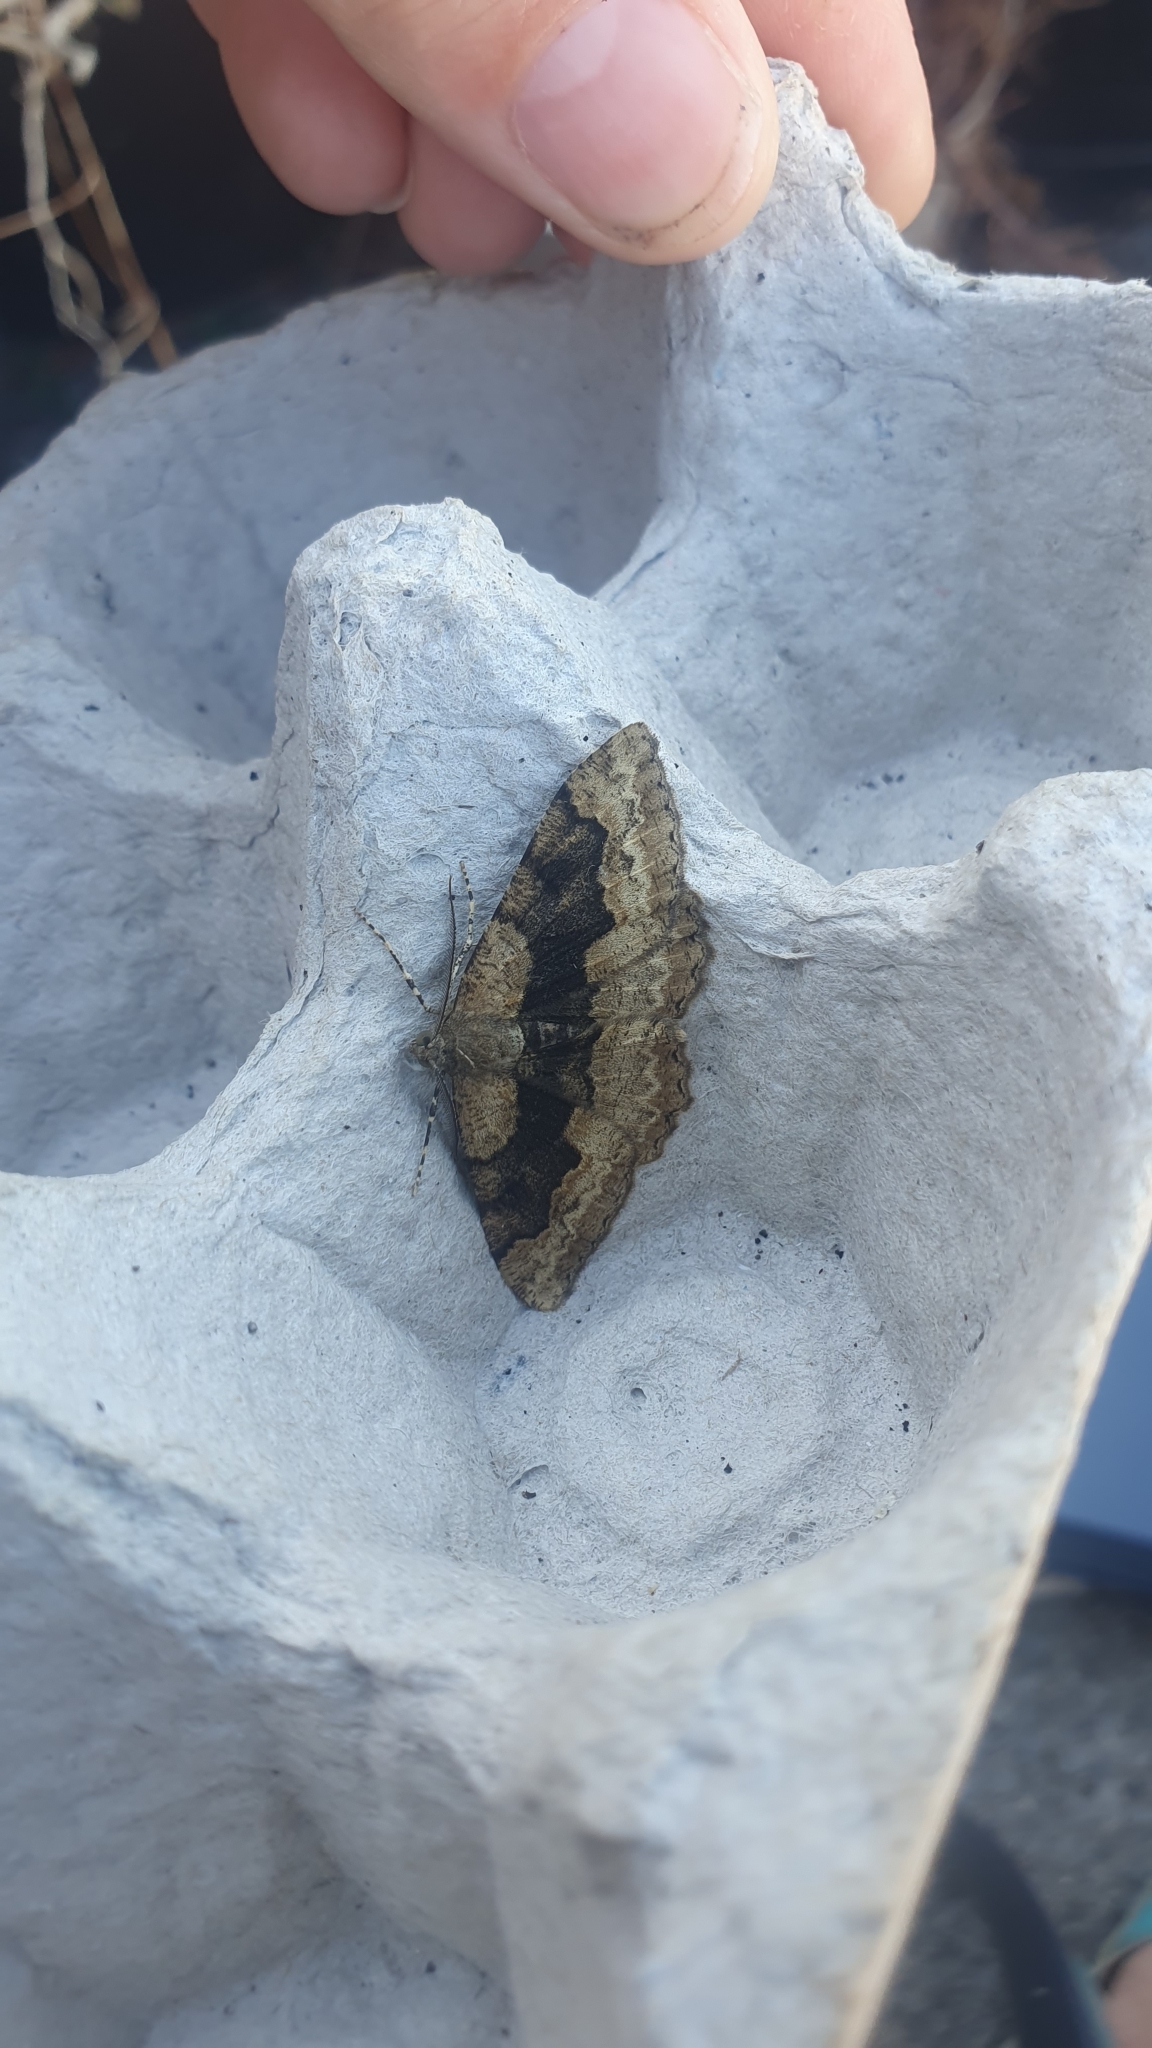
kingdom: Animalia
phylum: Arthropoda
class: Insecta
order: Lepidoptera
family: Geometridae
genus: Alcis
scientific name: Alcis repandata
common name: Mottled beauty
